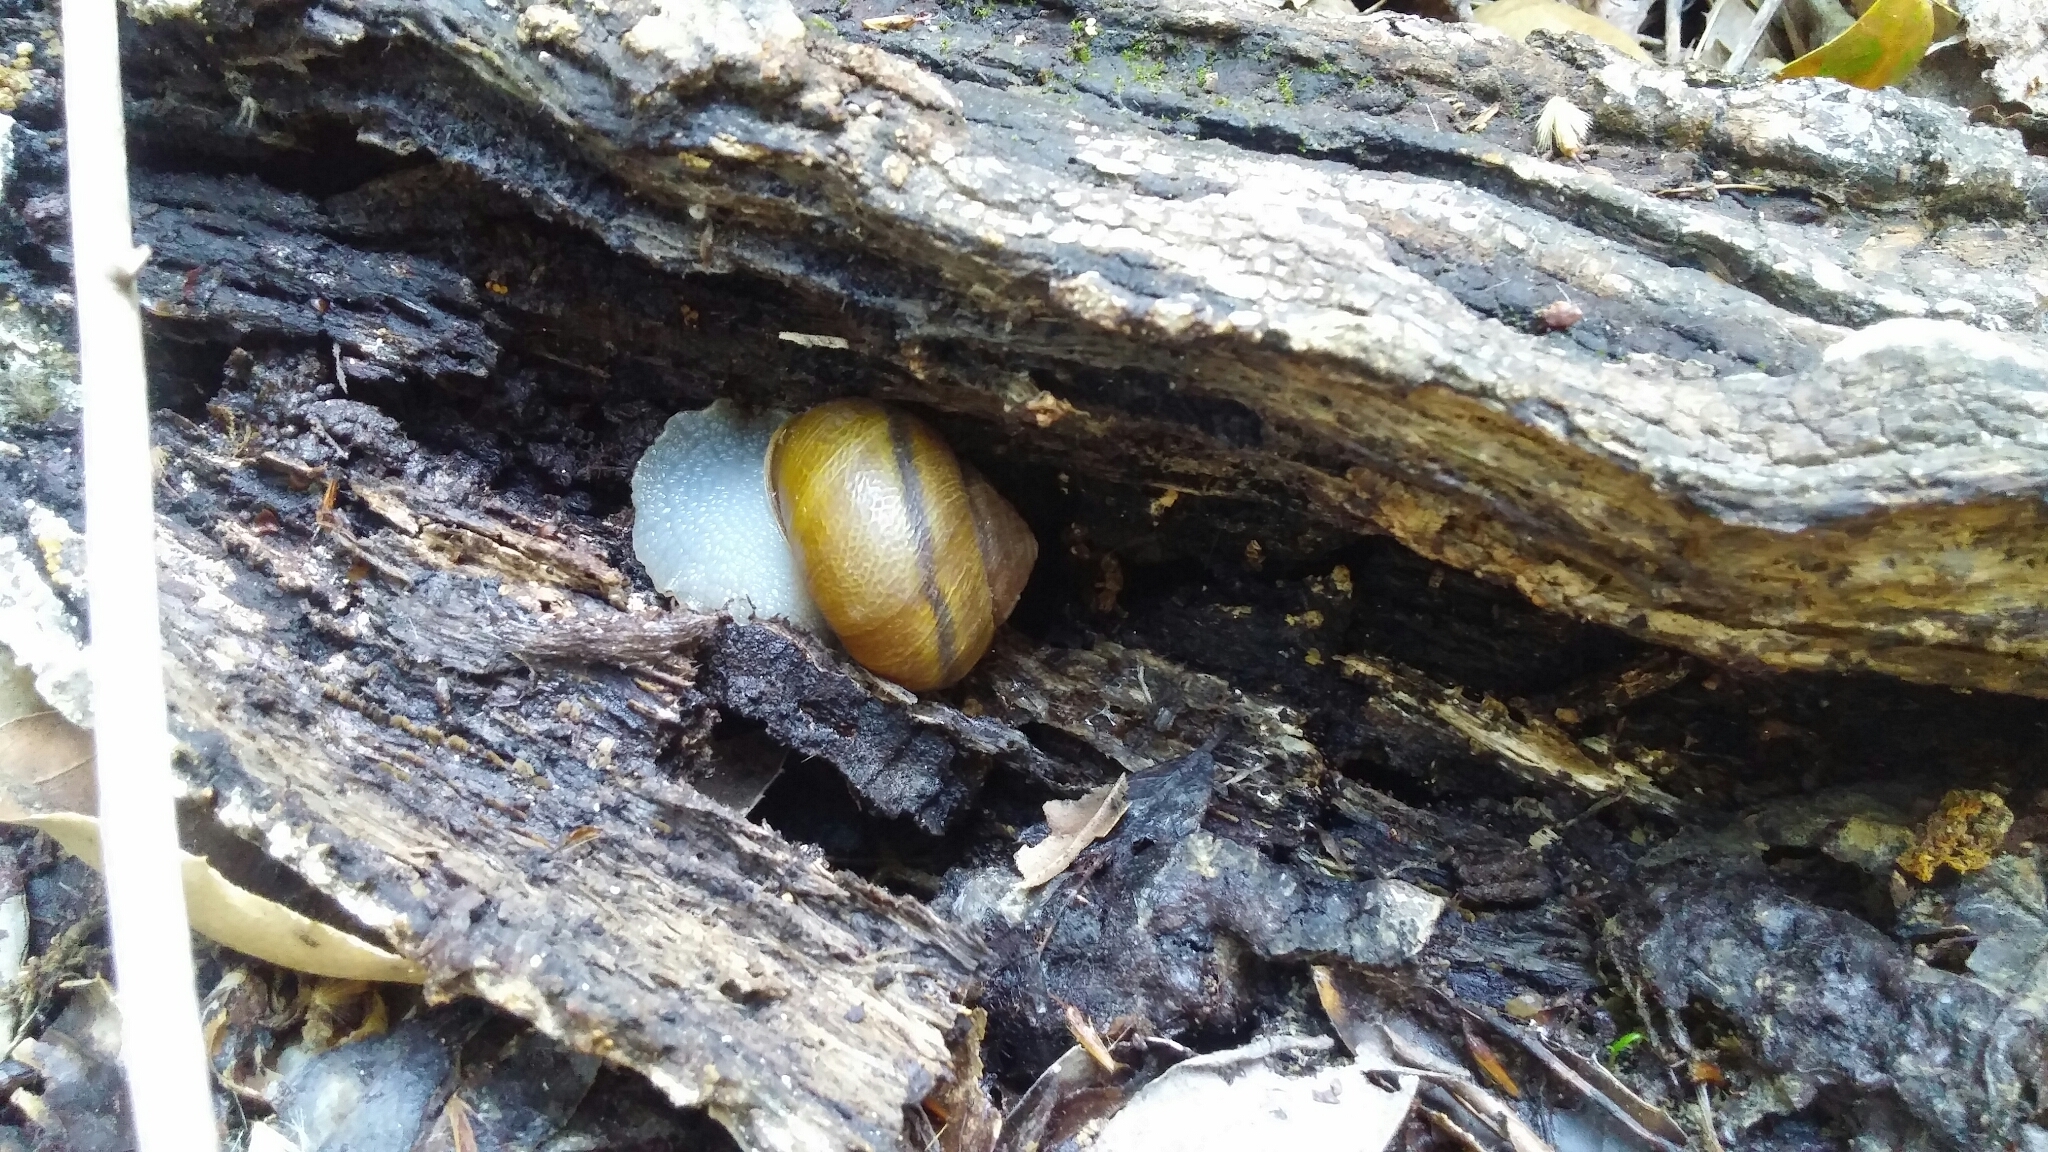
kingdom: Animalia
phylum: Mollusca
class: Gastropoda
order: Stylommatophora
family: Xanthonychidae
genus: Helminthoglypta
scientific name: Helminthoglypta tudiculata
